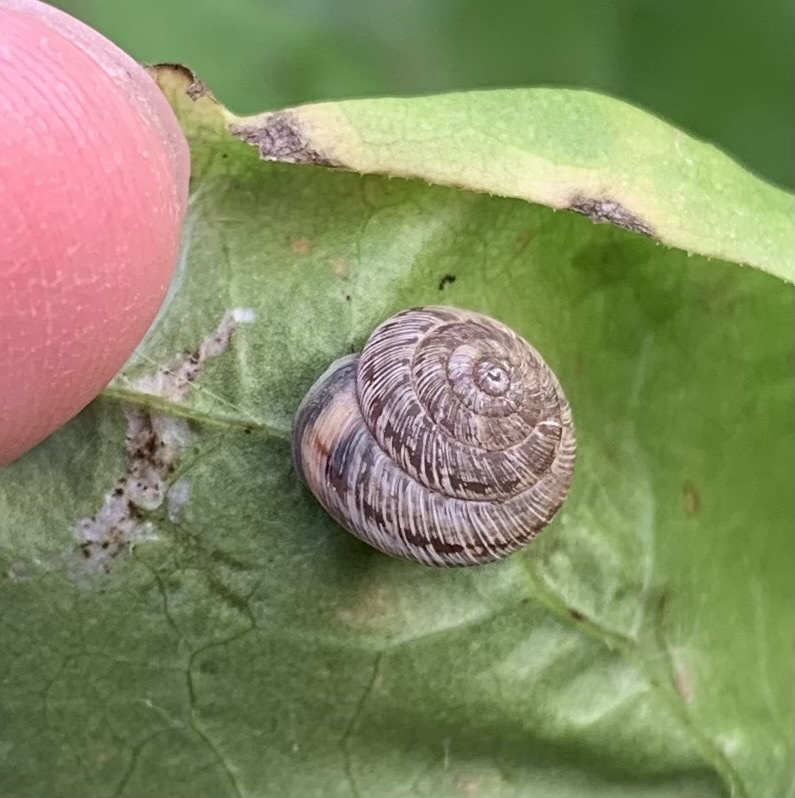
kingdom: Animalia
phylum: Mollusca
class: Gastropoda
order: Stylommatophora
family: Geomitridae
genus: Xeroplexa
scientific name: Xeroplexa intersecta
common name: Wrinkled snail
